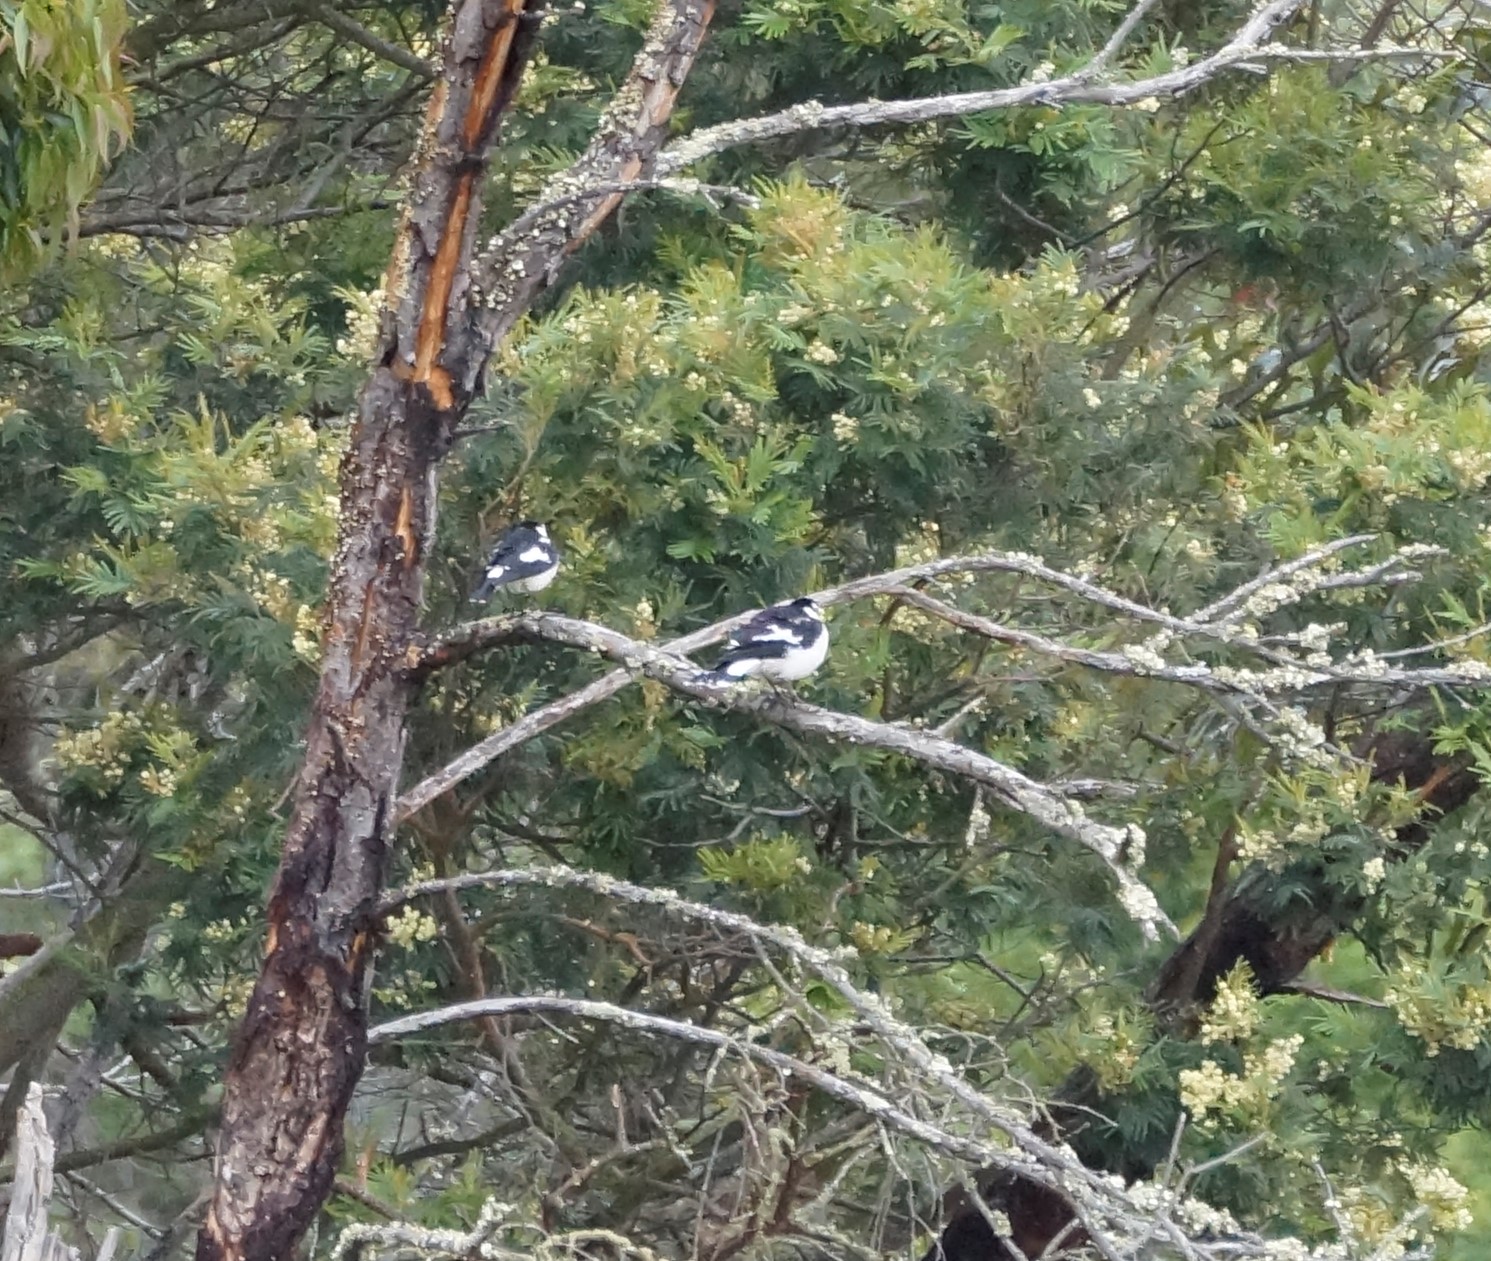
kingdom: Animalia
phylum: Chordata
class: Aves
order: Passeriformes
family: Monarchidae
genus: Grallina
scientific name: Grallina cyanoleuca
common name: Magpie-lark
